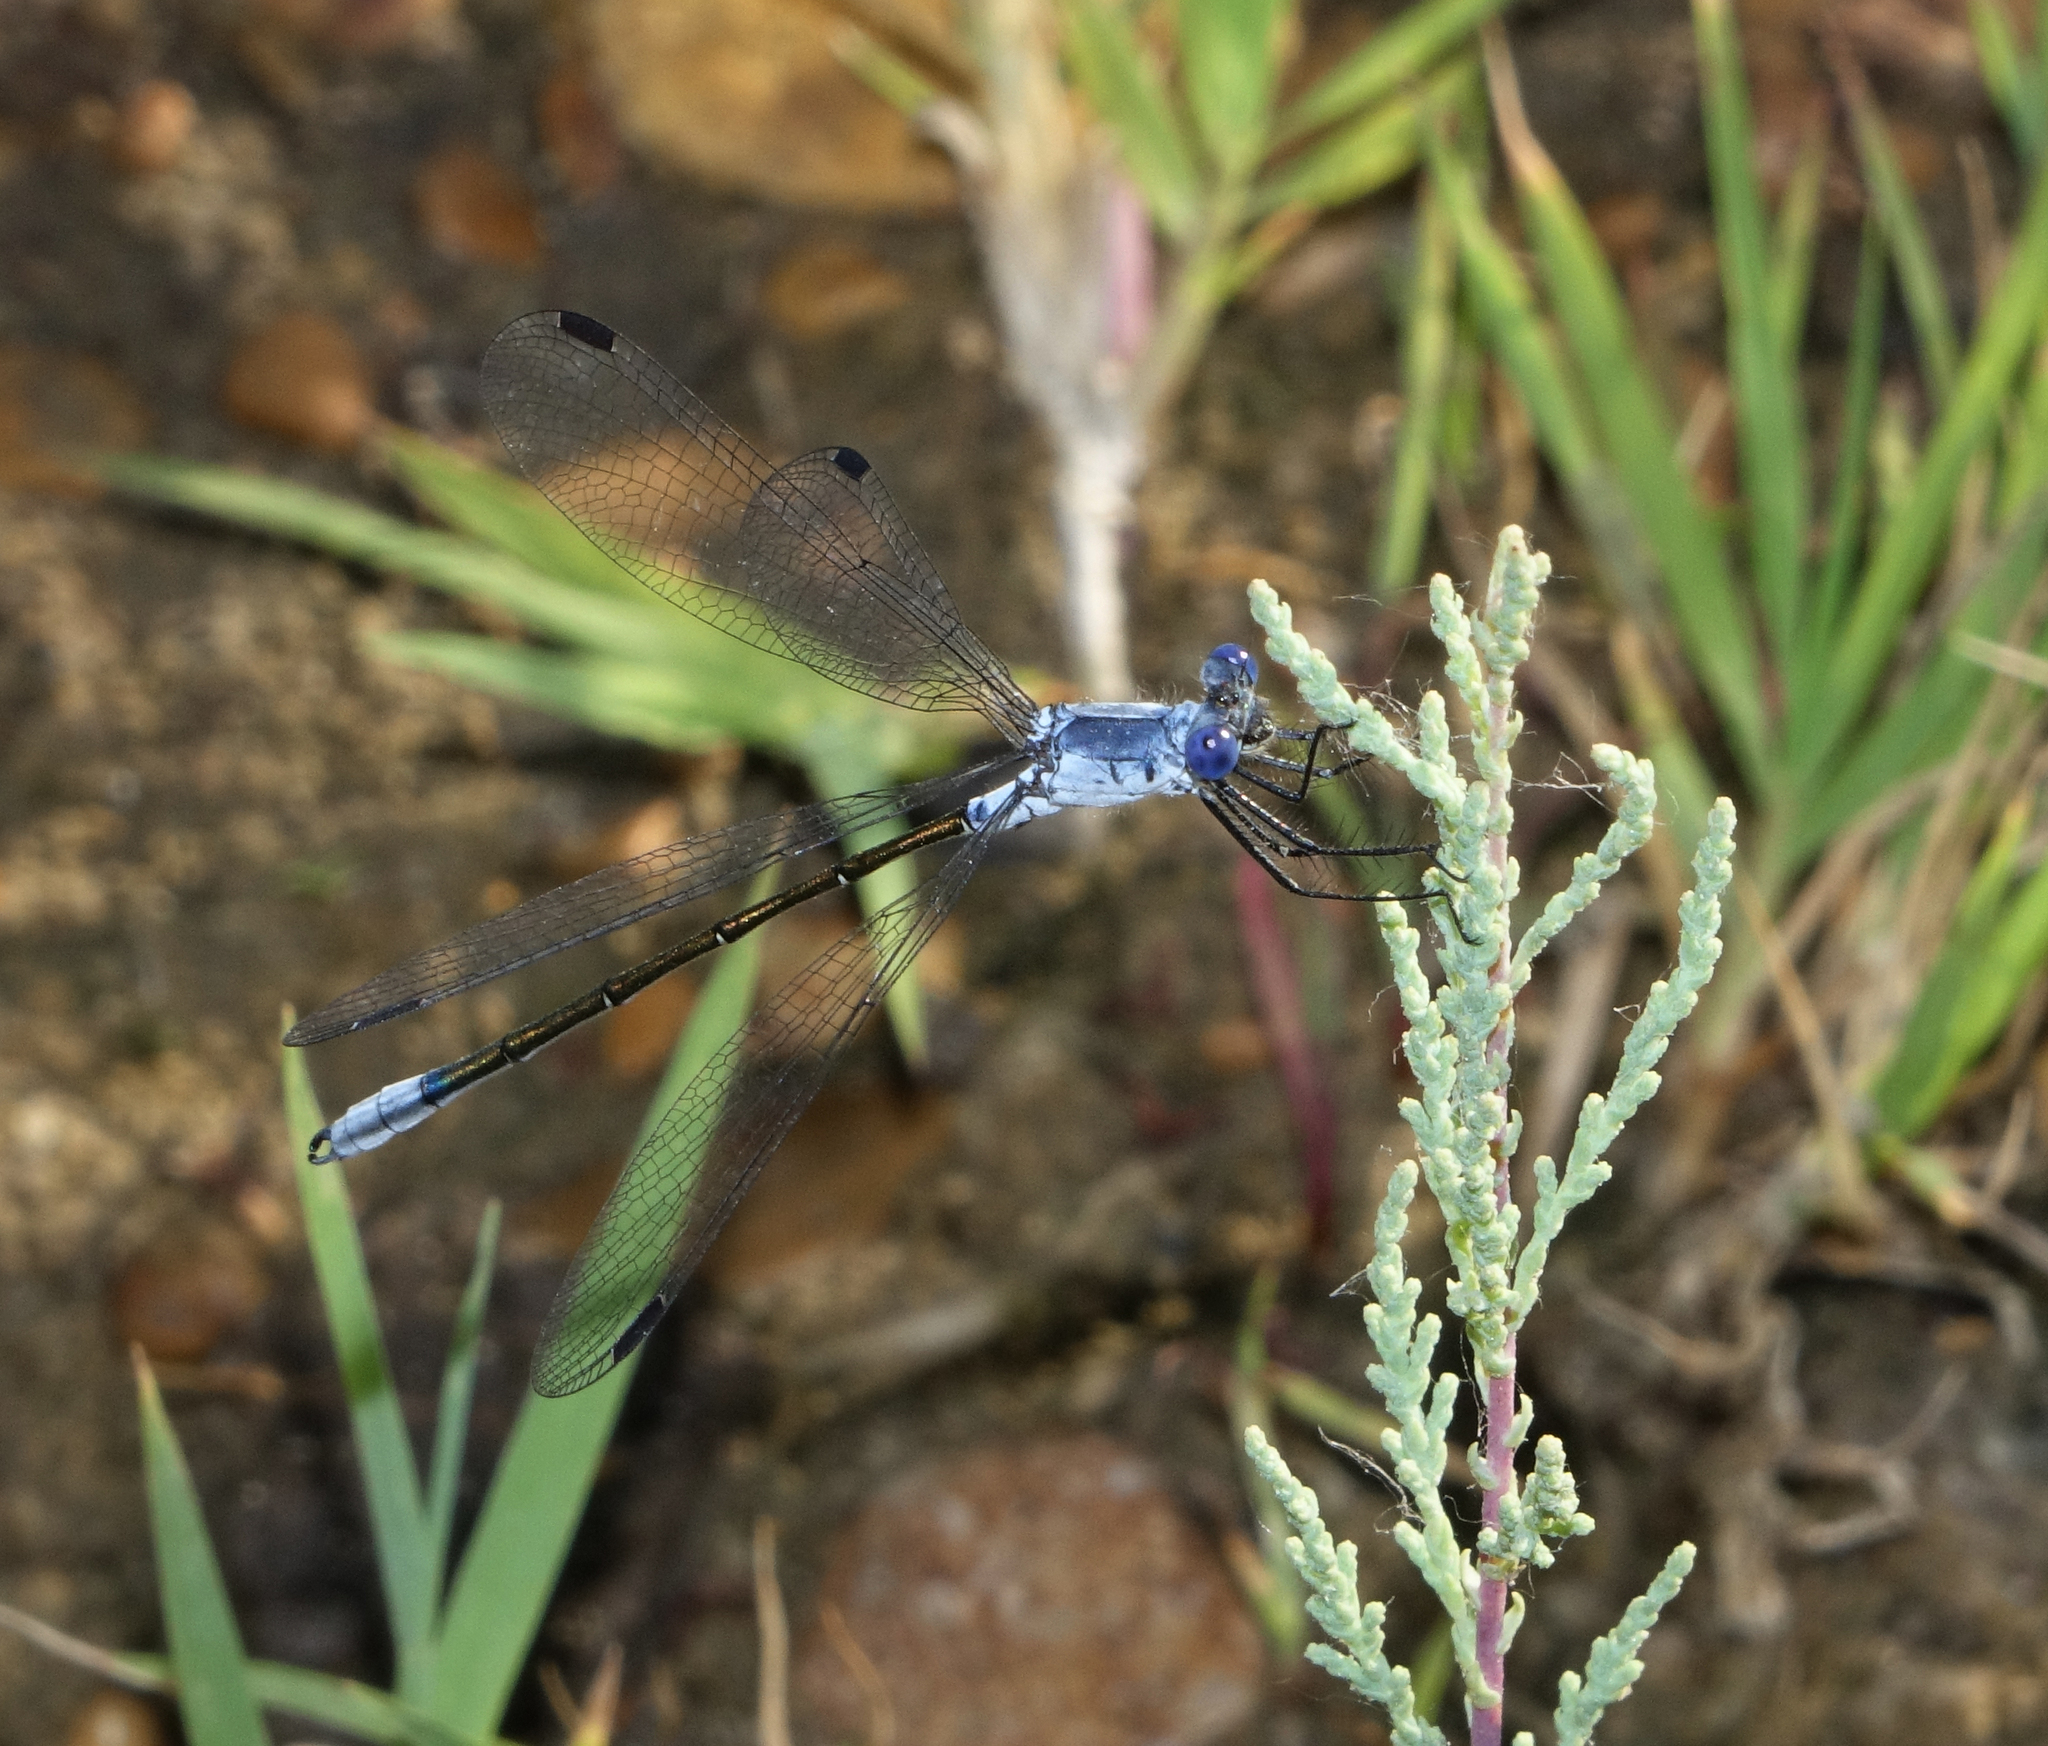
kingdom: Animalia
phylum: Arthropoda
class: Insecta
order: Odonata
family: Lestidae
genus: Lestes
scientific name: Lestes macrostigma
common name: Dark spreadwing
